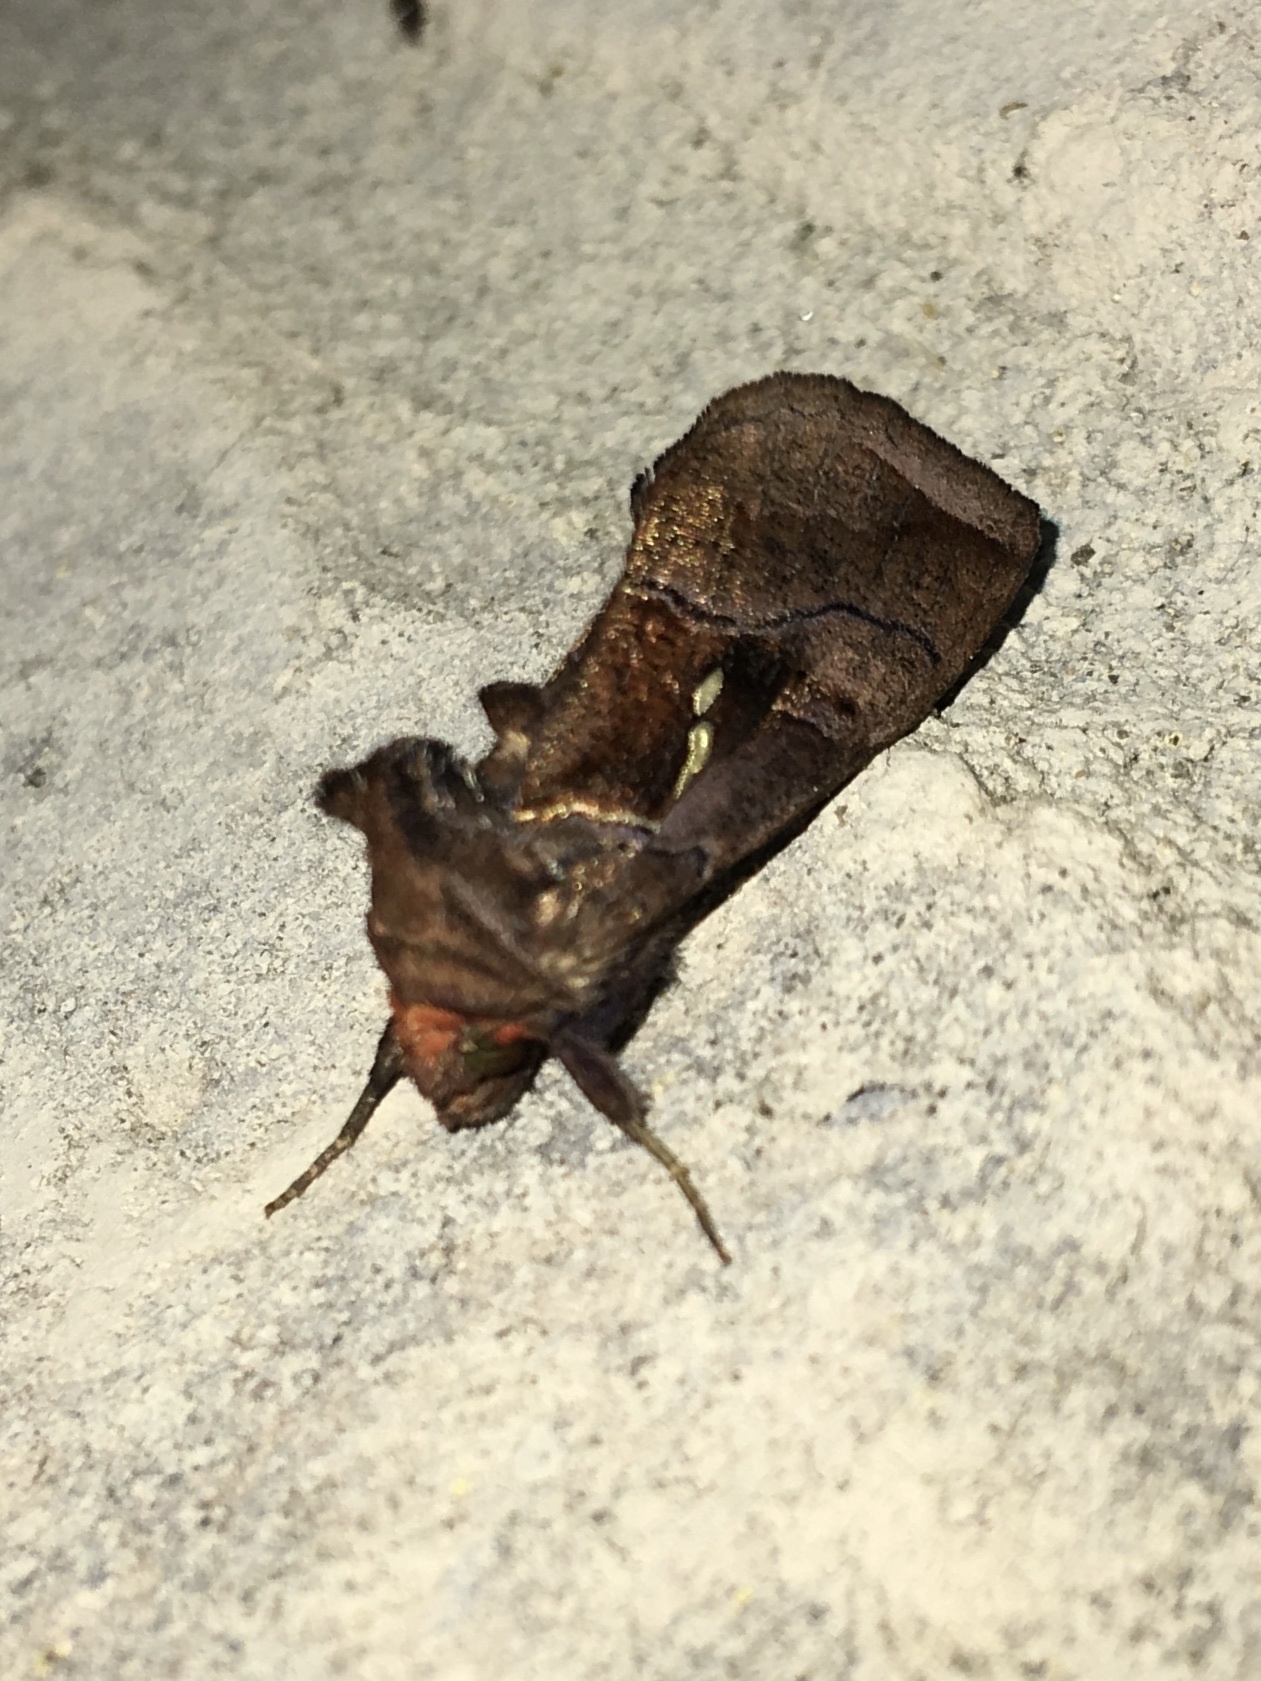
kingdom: Animalia
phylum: Arthropoda
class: Insecta
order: Lepidoptera
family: Noctuidae
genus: Enigmogramma
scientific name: Enigmogramma basigera
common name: Pink-washed looper moth
